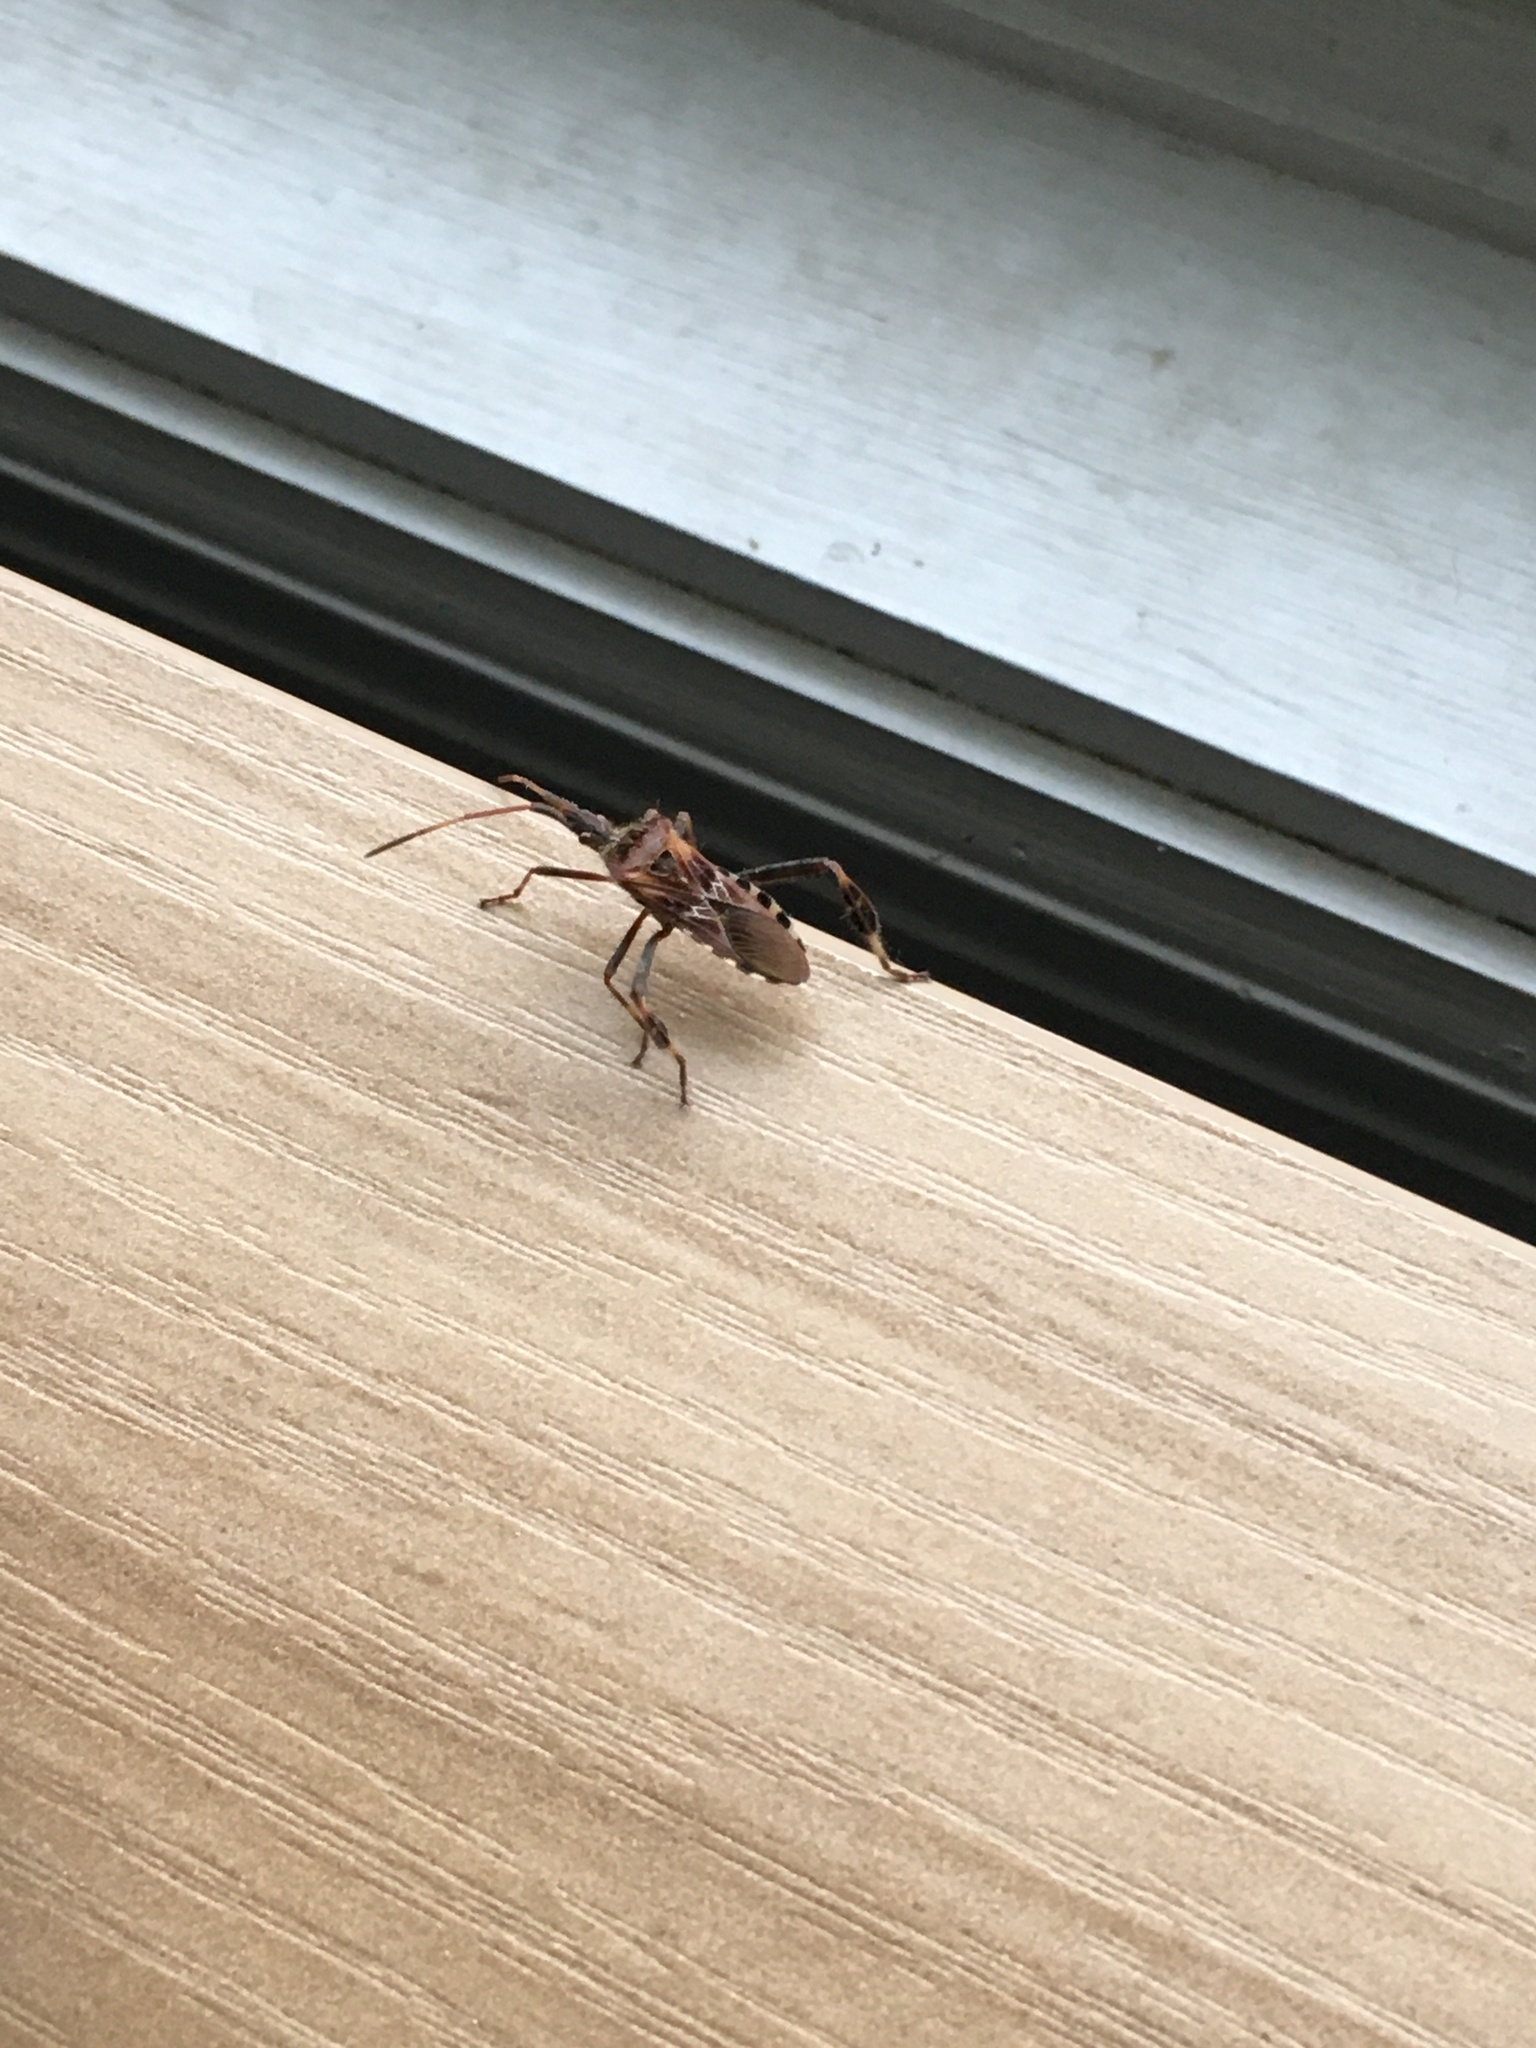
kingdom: Animalia
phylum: Arthropoda
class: Insecta
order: Hemiptera
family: Coreidae
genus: Leptoglossus
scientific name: Leptoglossus occidentalis
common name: Western conifer-seed bug
